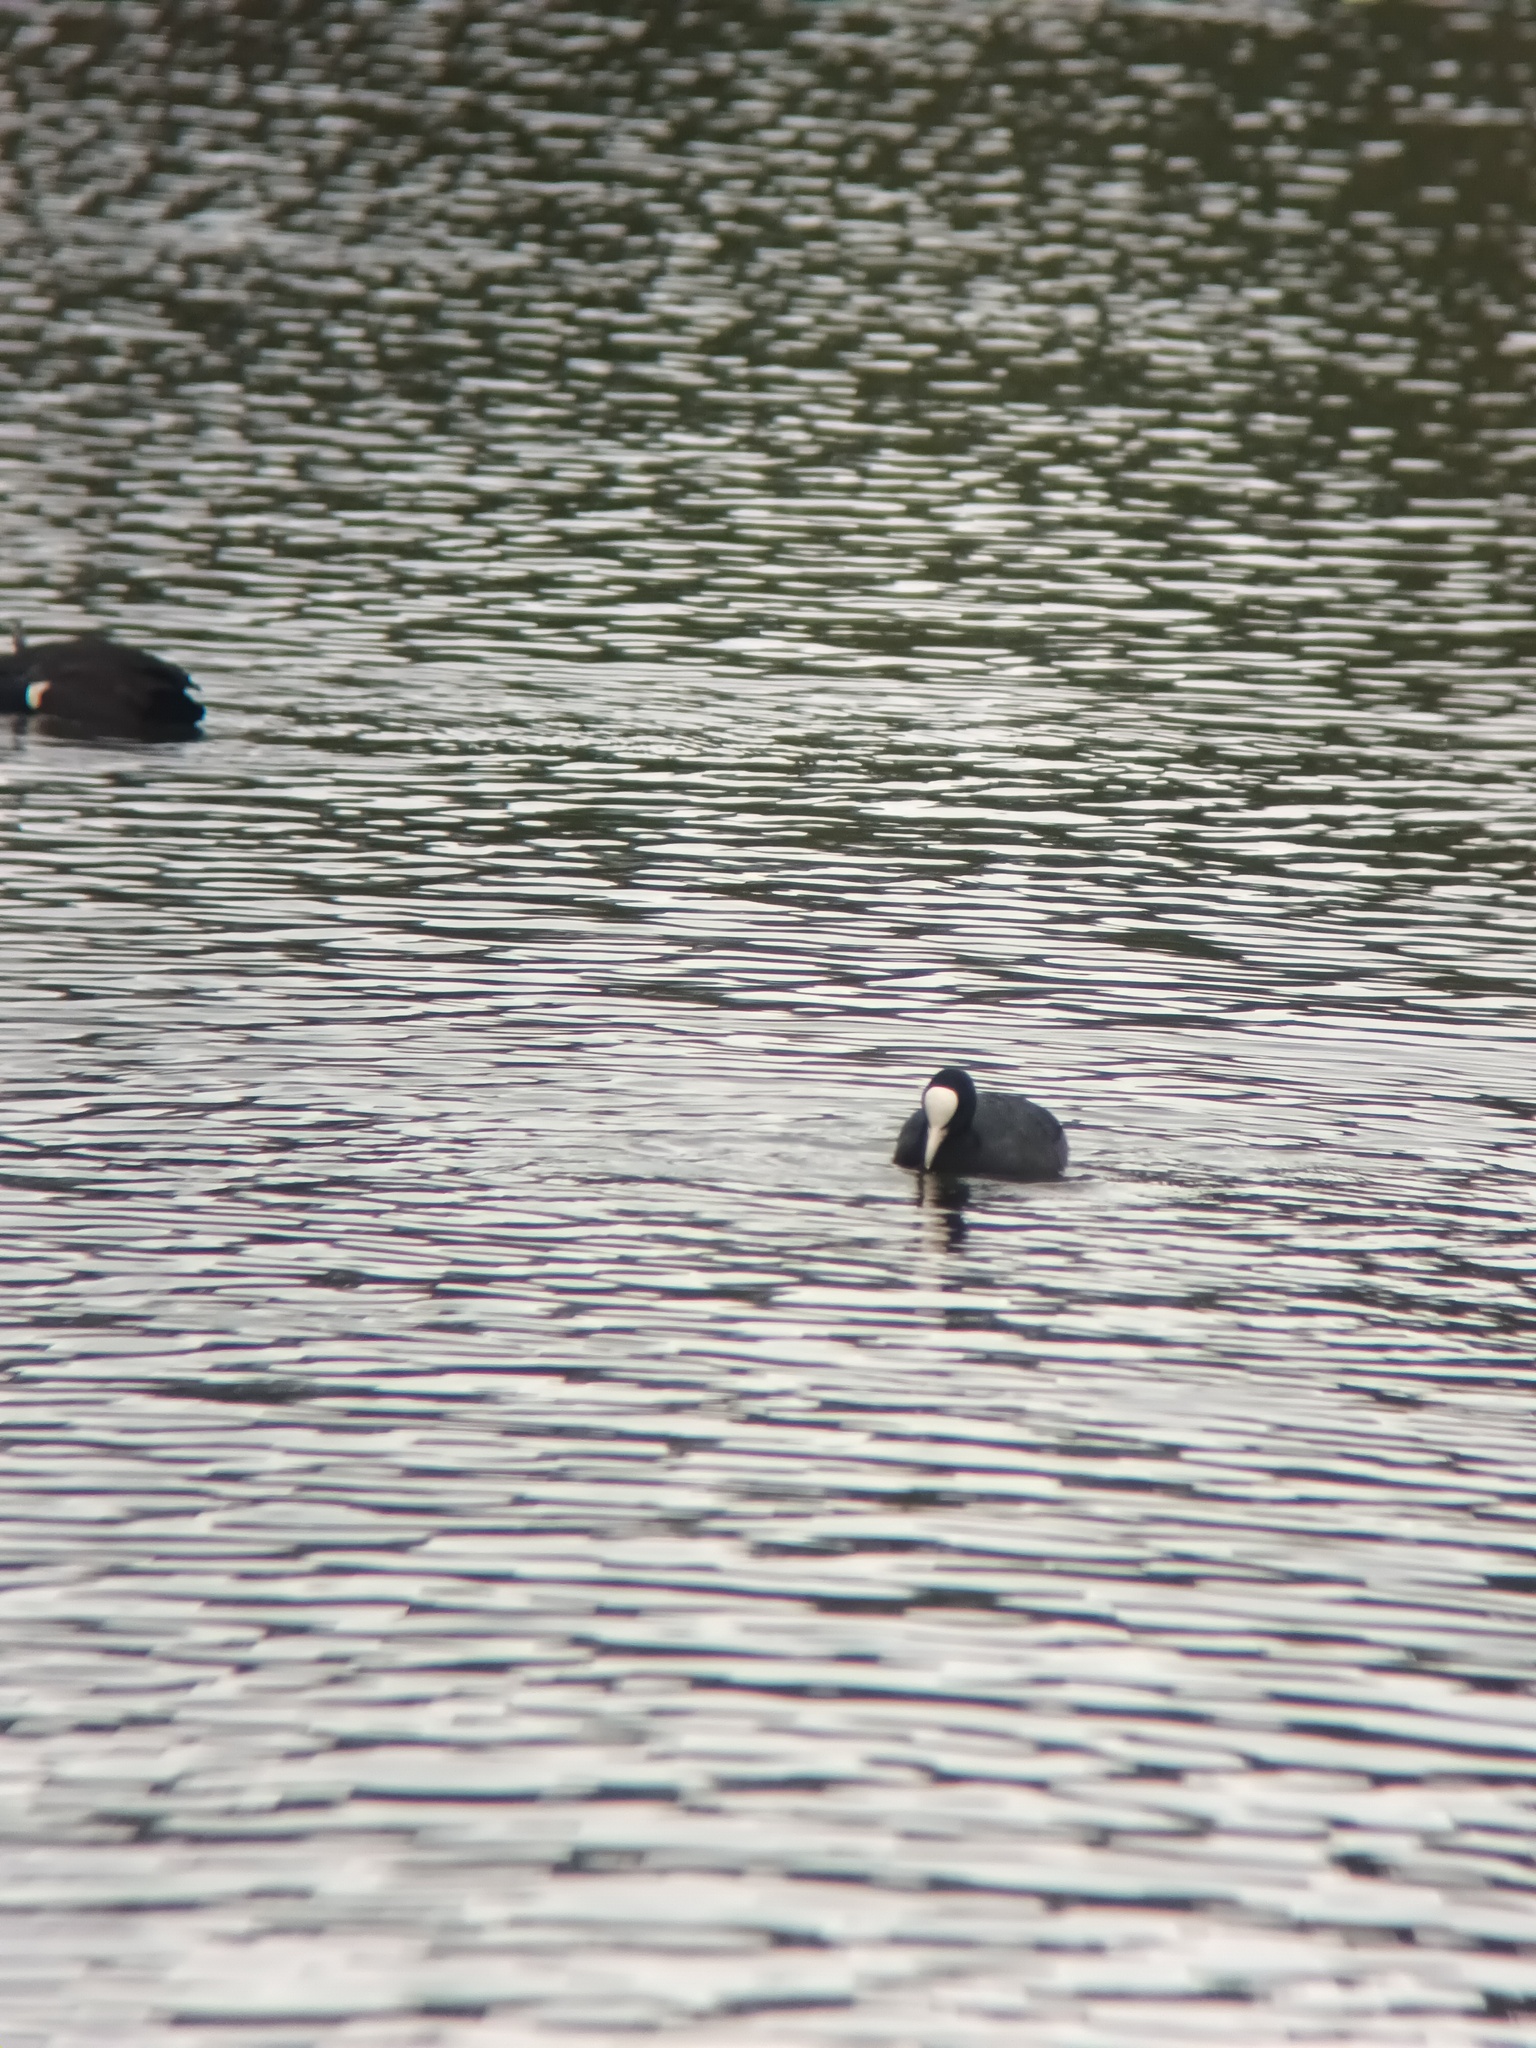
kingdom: Animalia
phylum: Chordata
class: Aves
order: Gruiformes
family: Rallidae
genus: Fulica
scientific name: Fulica atra
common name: Eurasian coot
